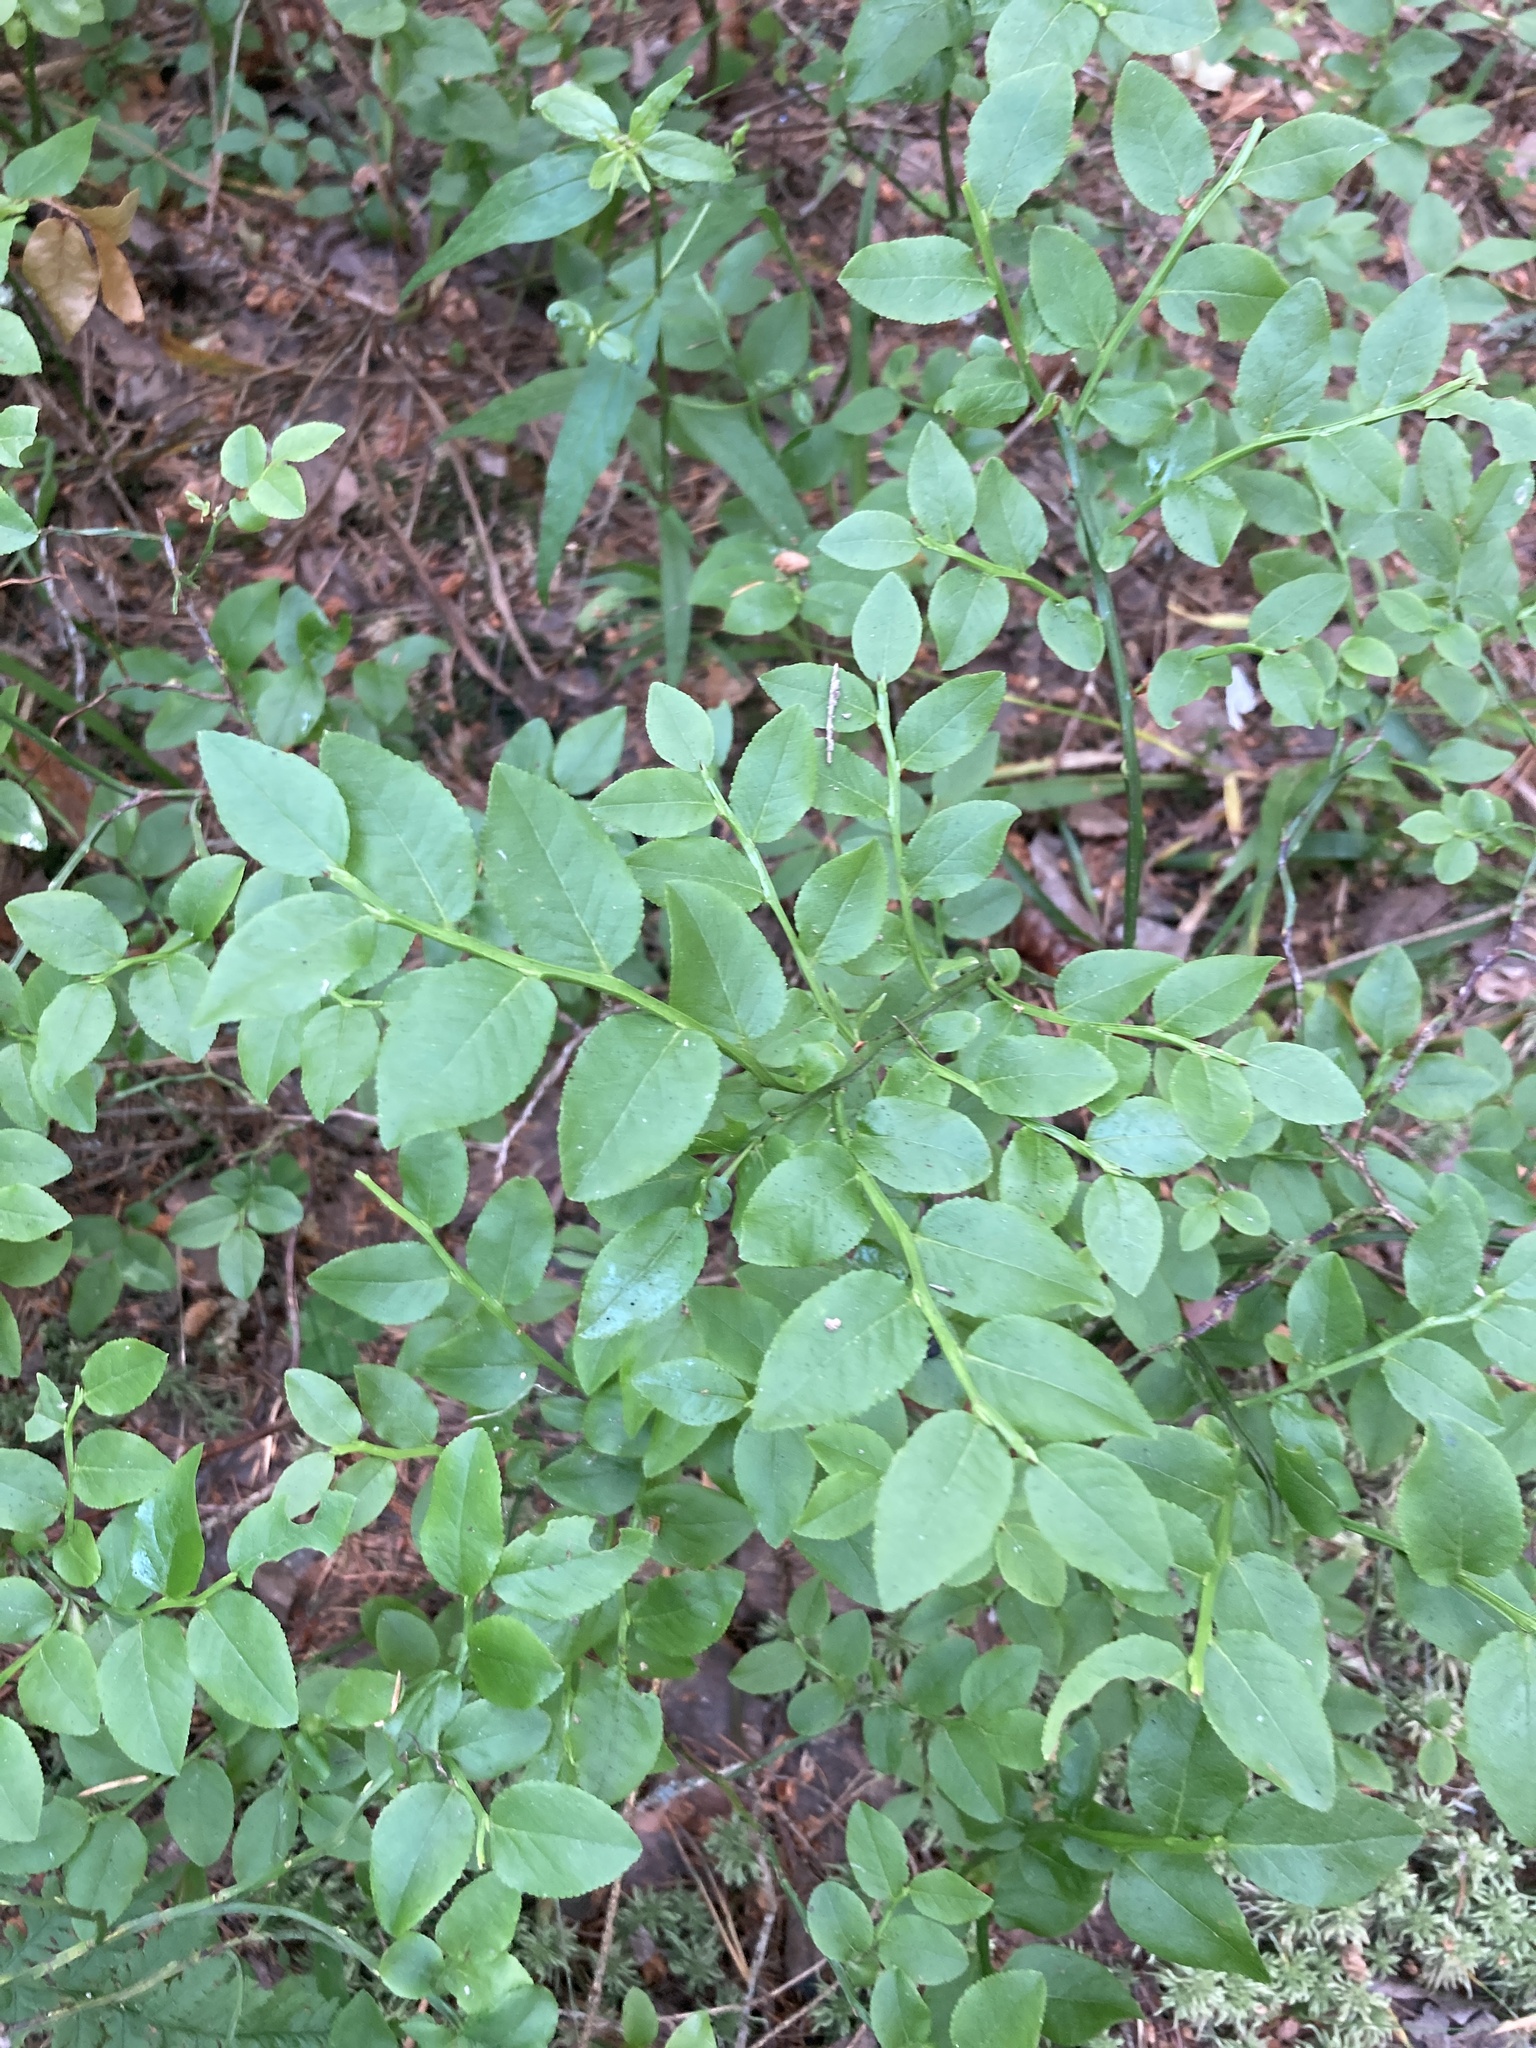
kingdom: Plantae
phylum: Tracheophyta
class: Magnoliopsida
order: Ericales
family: Ericaceae
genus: Vaccinium
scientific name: Vaccinium myrtillus
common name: Bilberry
